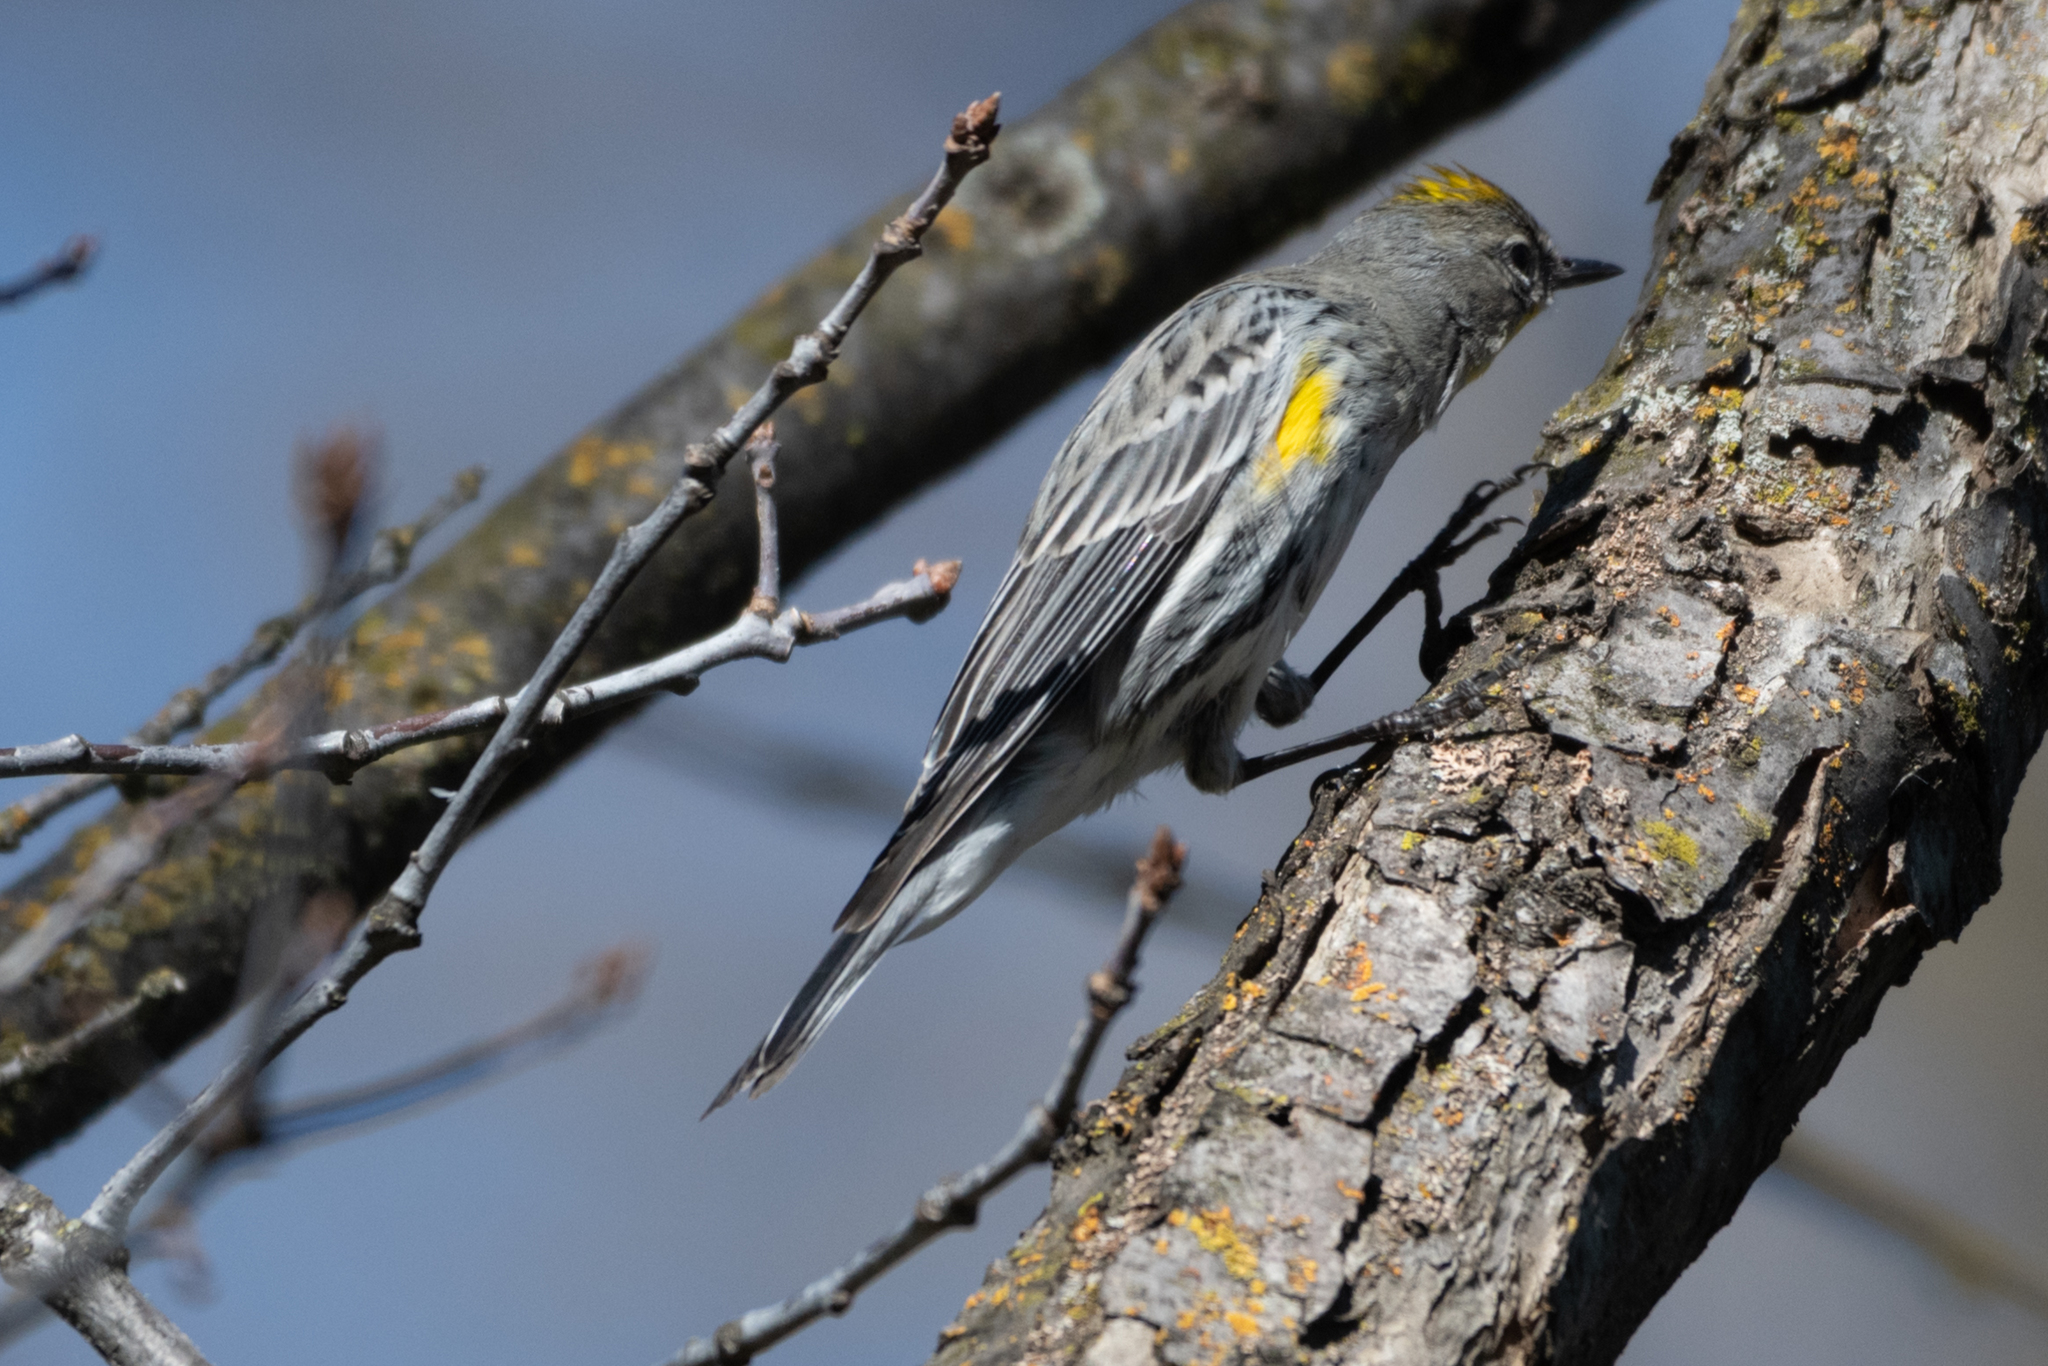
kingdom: Animalia
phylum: Chordata
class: Aves
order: Passeriformes
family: Parulidae
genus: Setophaga
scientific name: Setophaga coronata
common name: Myrtle warbler
